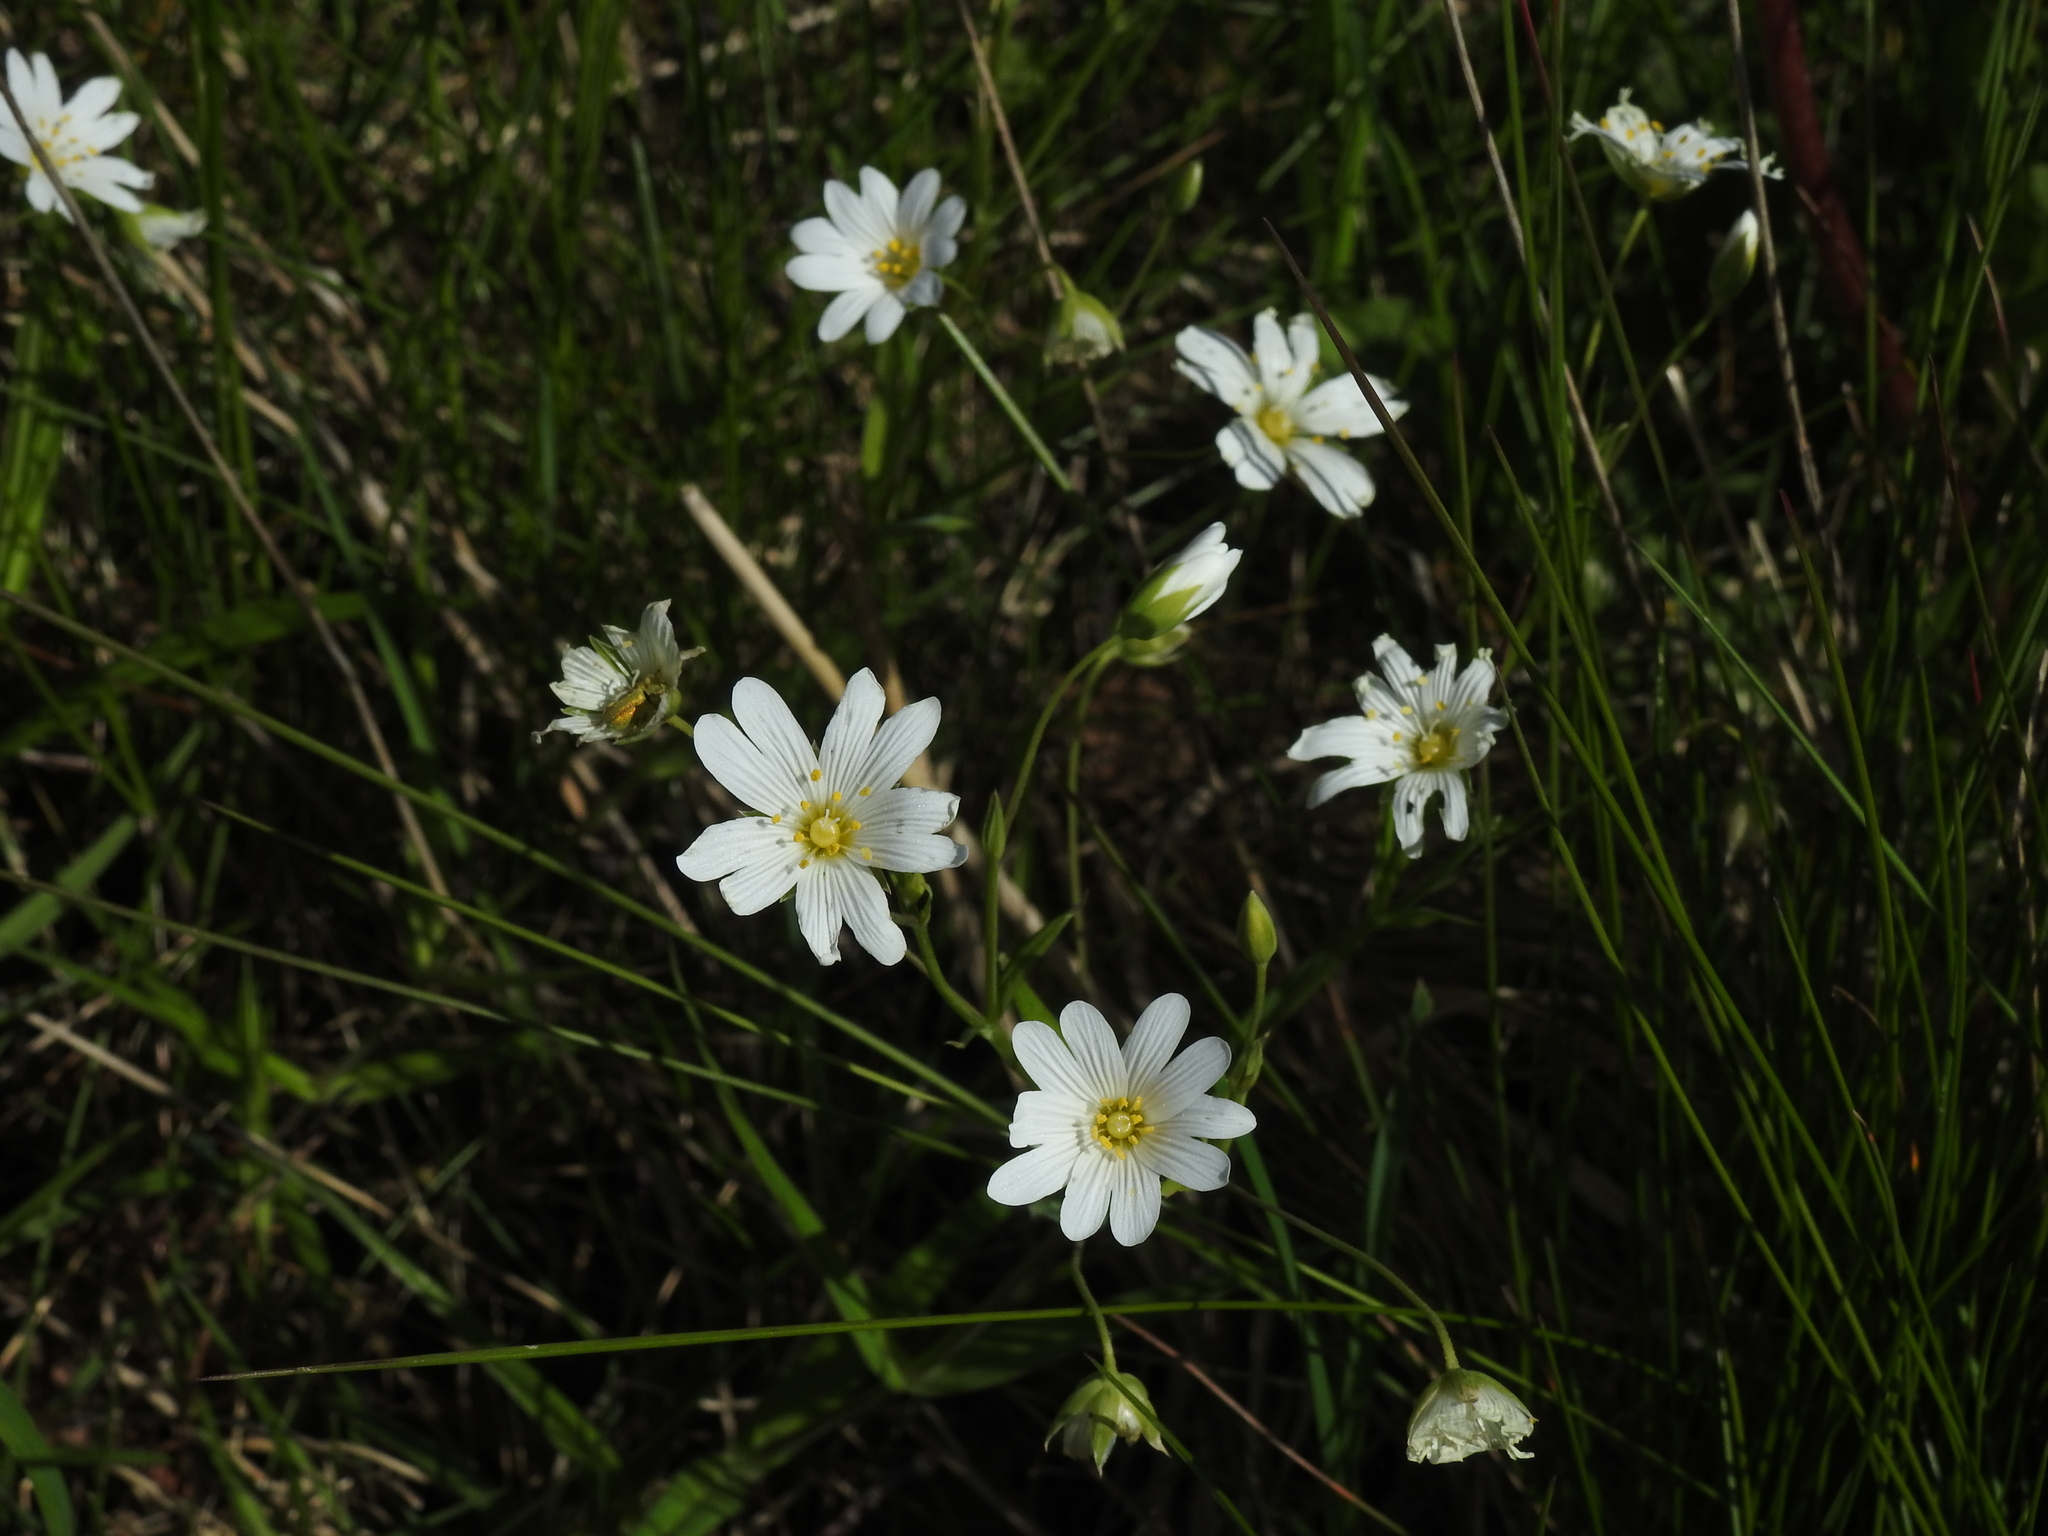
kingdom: Plantae
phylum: Tracheophyta
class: Magnoliopsida
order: Caryophyllales
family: Caryophyllaceae
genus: Rabelera
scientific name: Rabelera holostea
